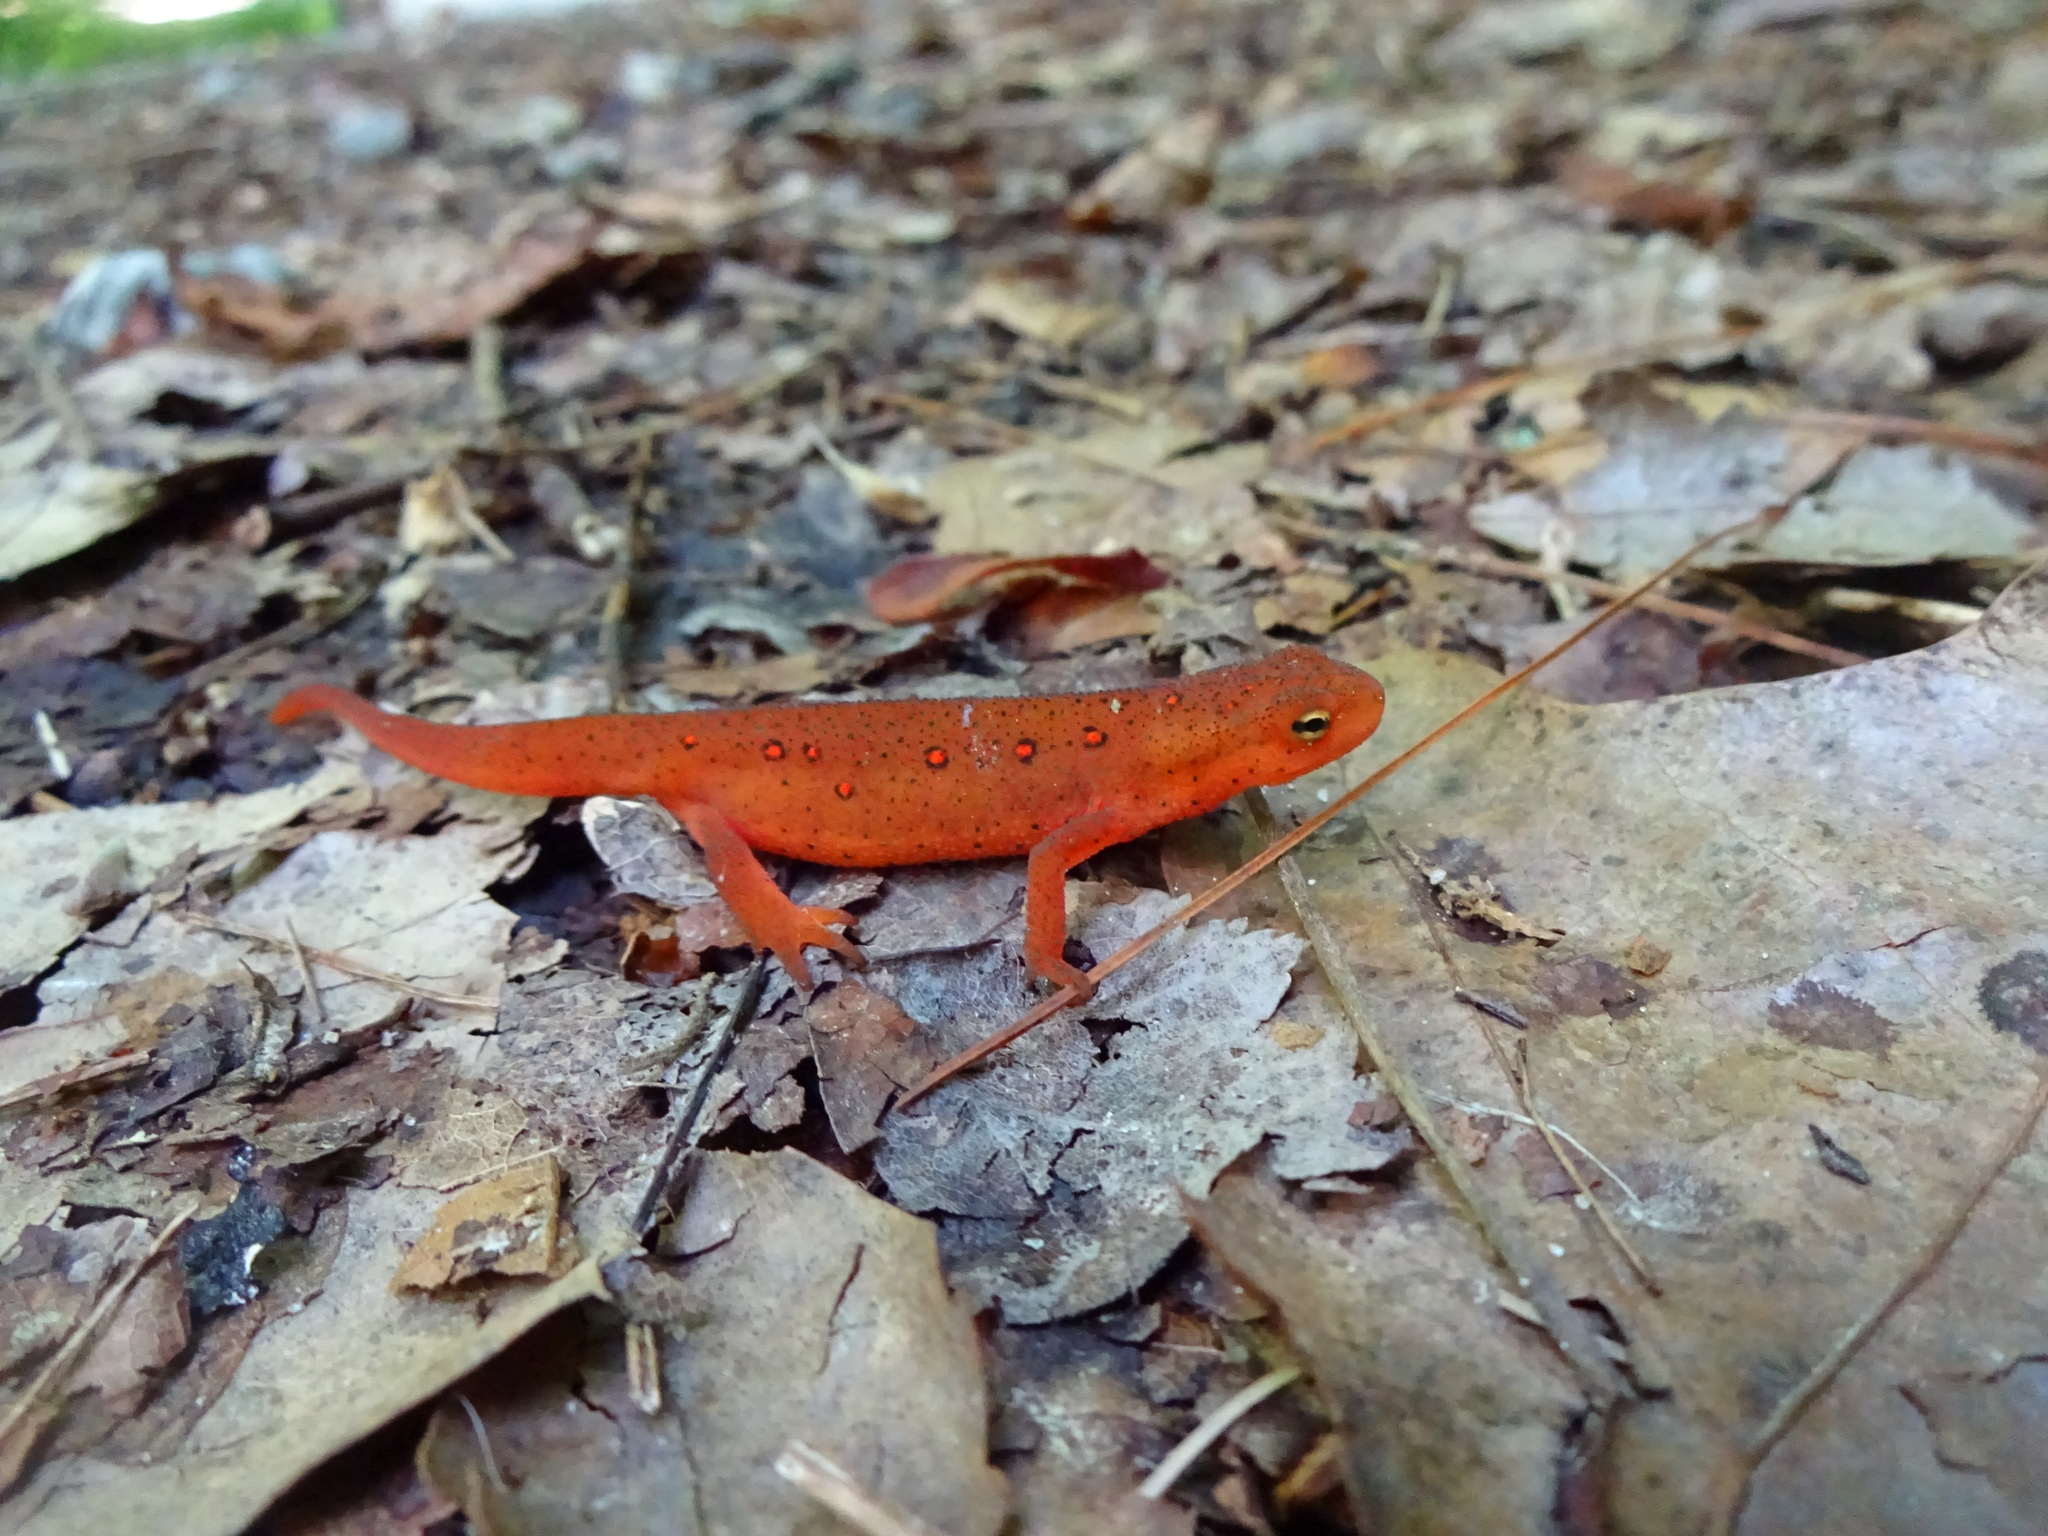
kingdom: Animalia
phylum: Chordata
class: Amphibia
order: Caudata
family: Salamandridae
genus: Notophthalmus
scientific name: Notophthalmus viridescens
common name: Eastern newt
